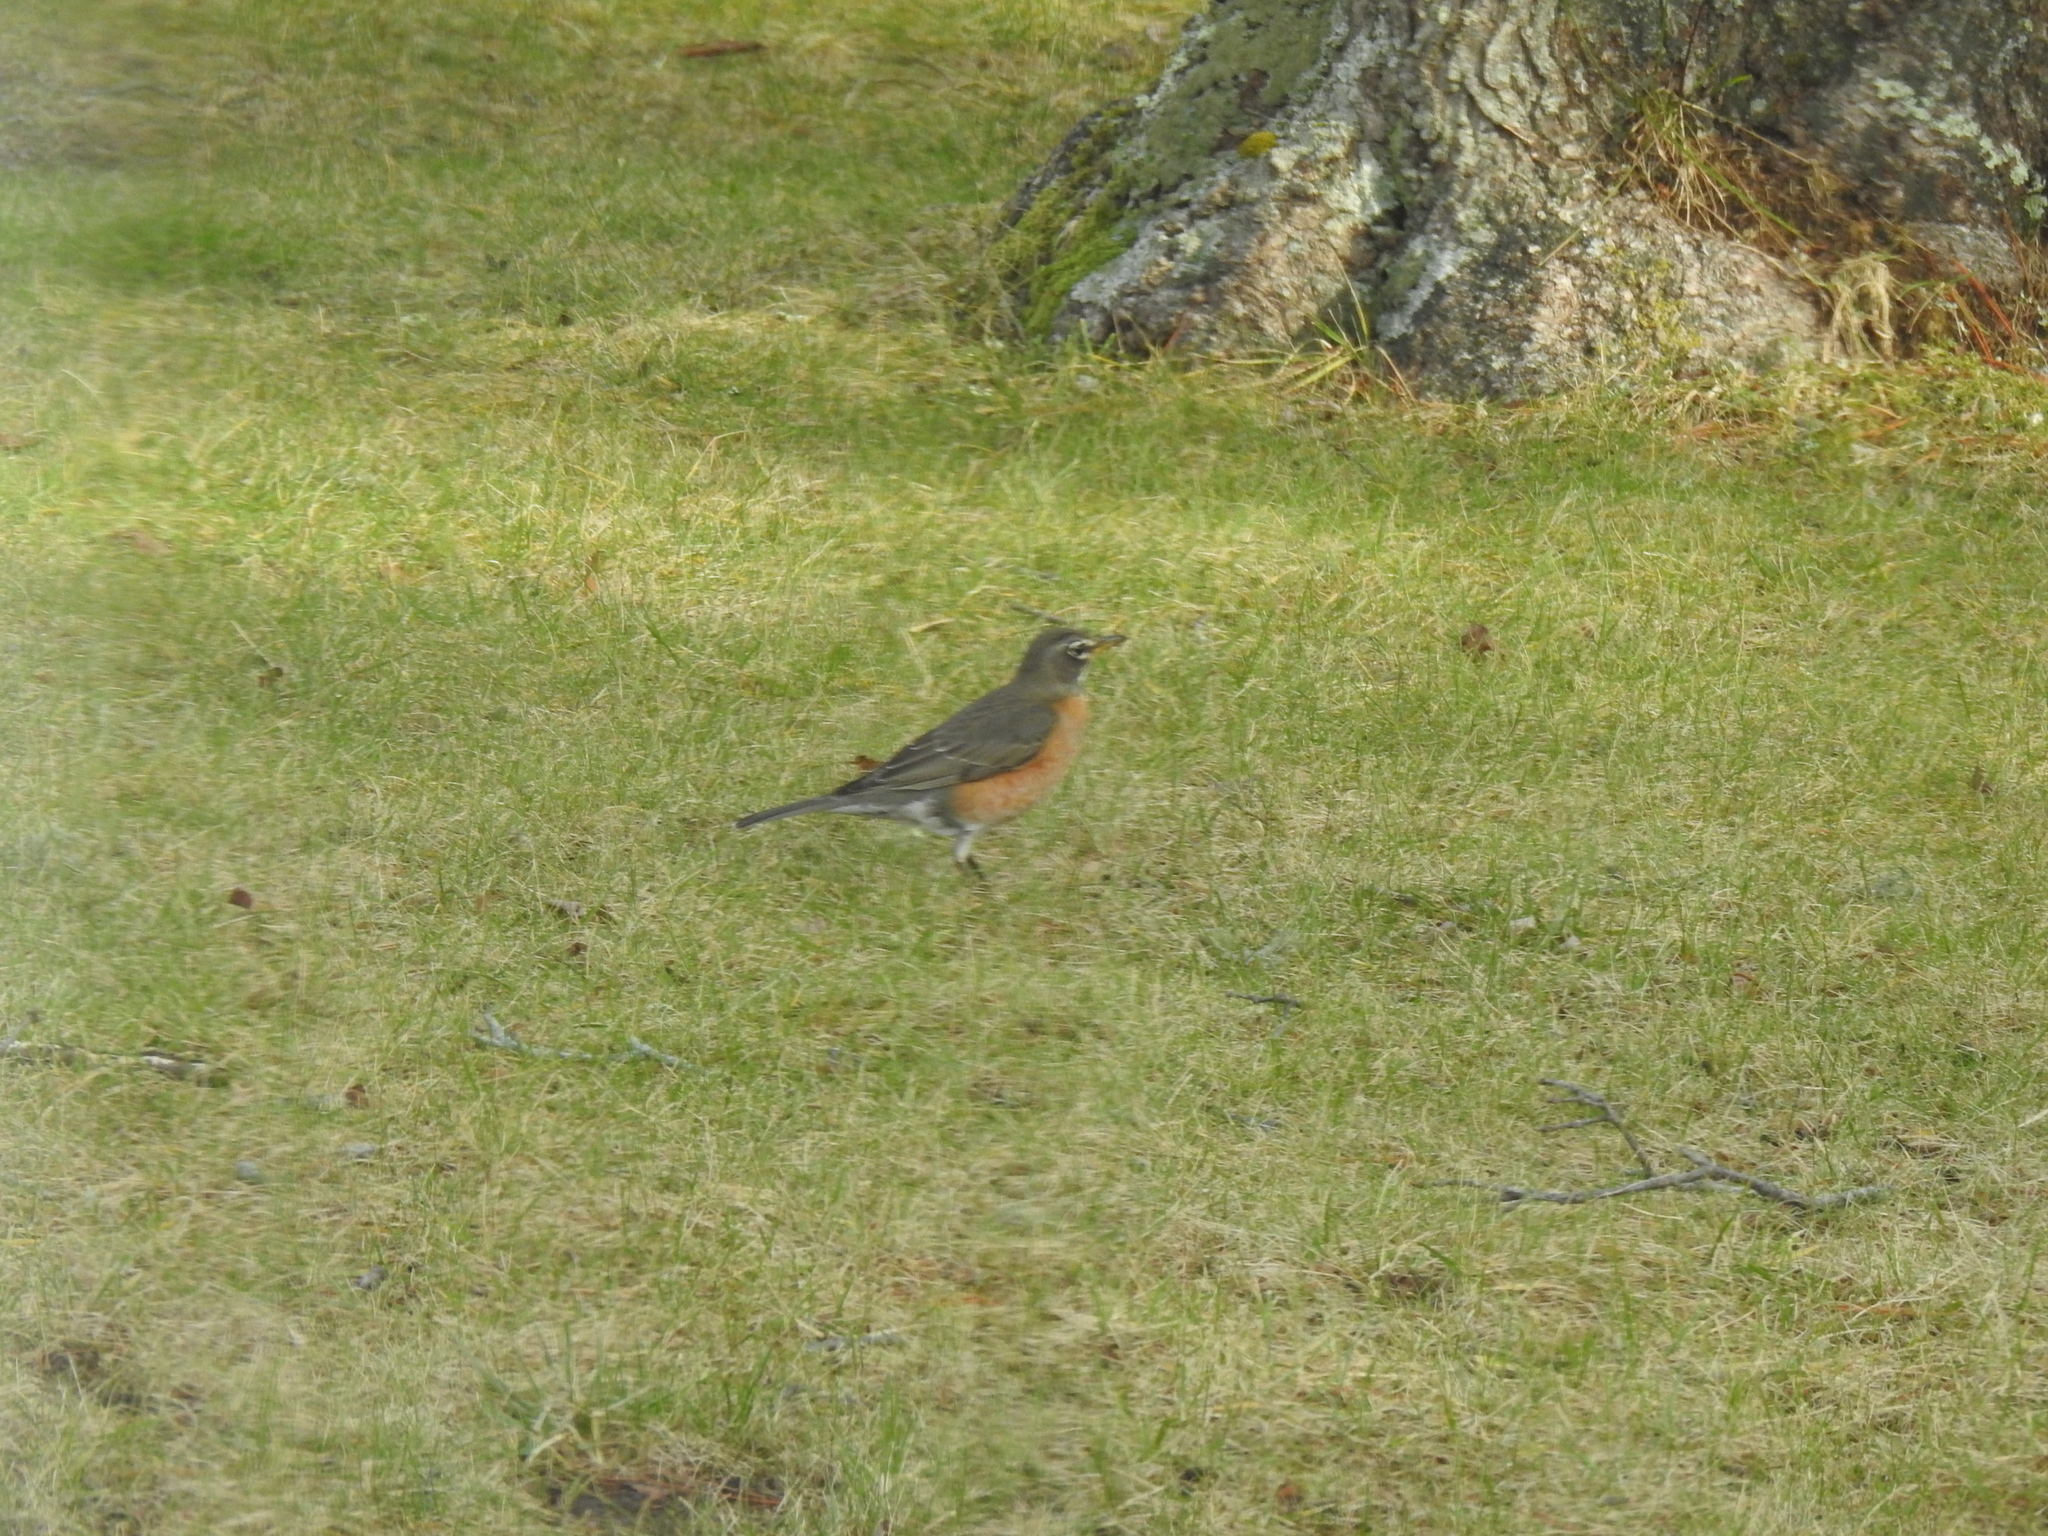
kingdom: Animalia
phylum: Chordata
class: Aves
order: Passeriformes
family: Turdidae
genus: Turdus
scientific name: Turdus migratorius
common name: American robin
